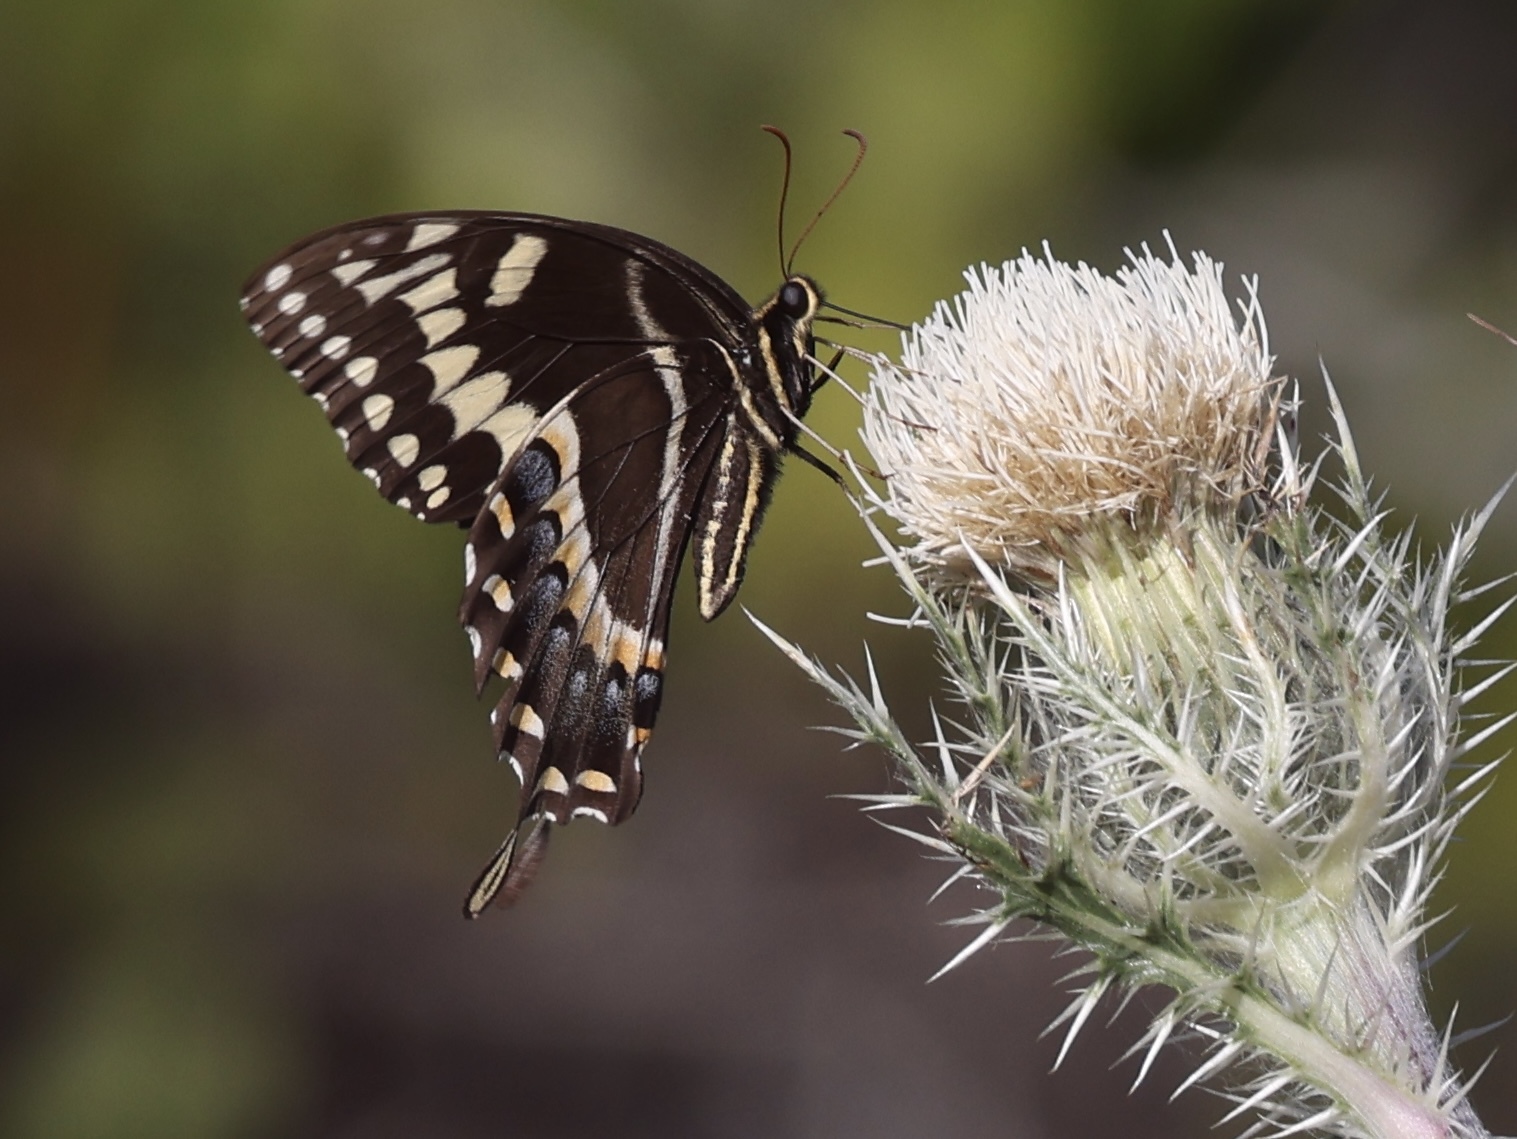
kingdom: Animalia
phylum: Arthropoda
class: Insecta
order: Lepidoptera
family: Papilionidae
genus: Papilio
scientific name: Papilio palamedes
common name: Palamedes swallowtail
